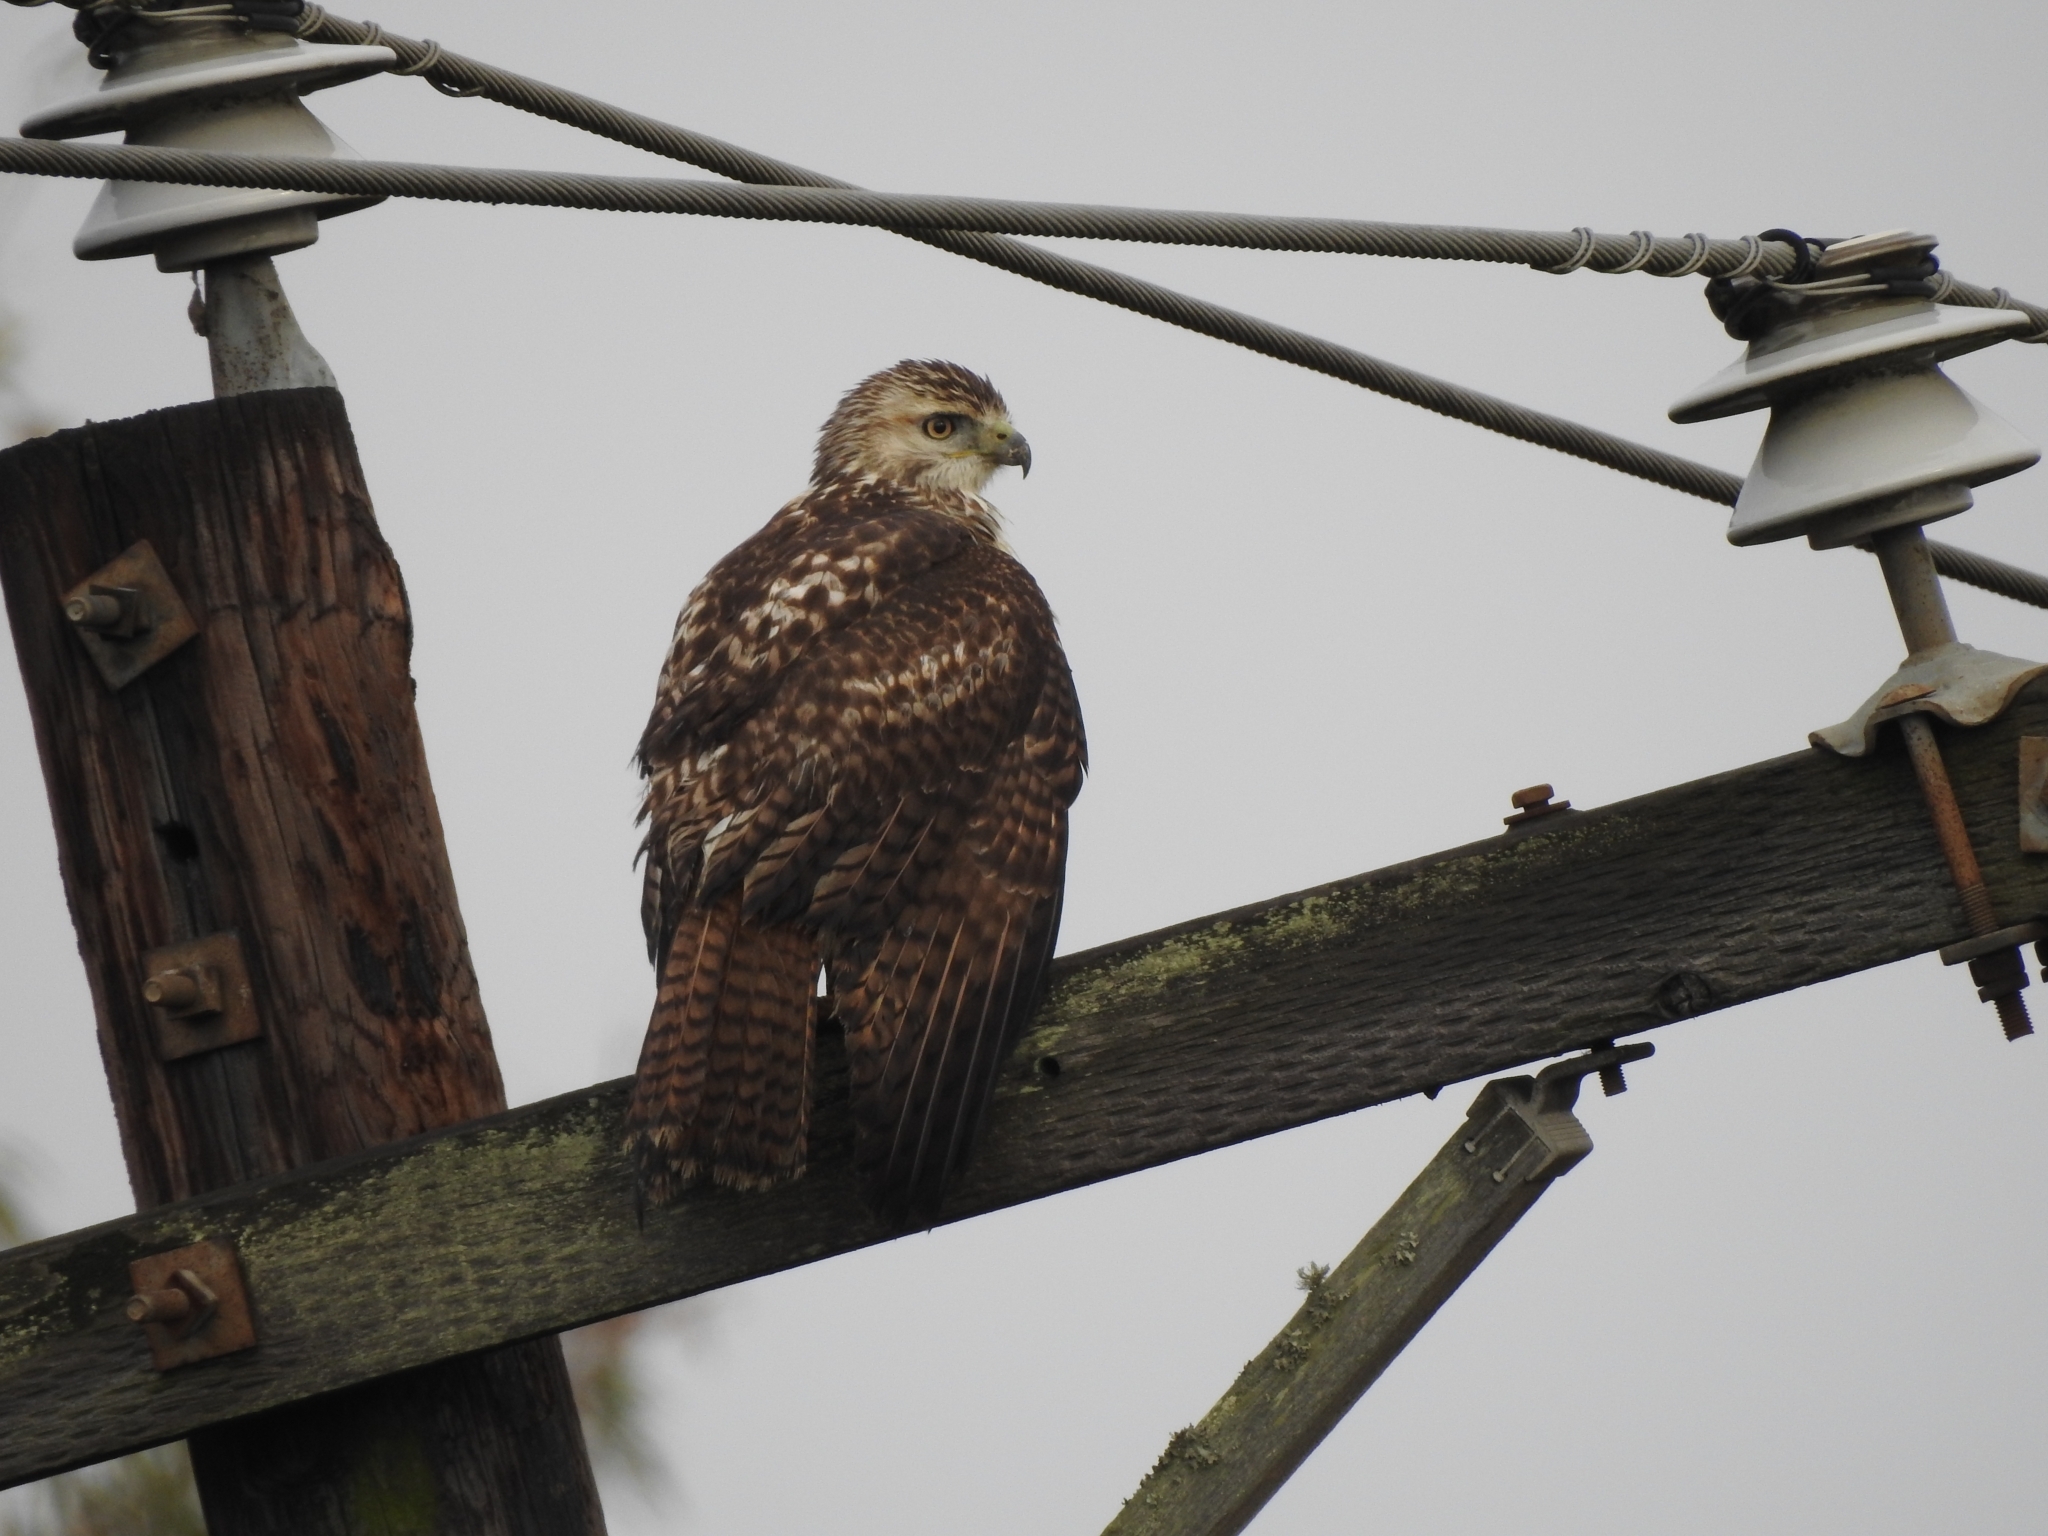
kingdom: Animalia
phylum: Chordata
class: Aves
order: Accipitriformes
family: Accipitridae
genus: Buteo
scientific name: Buteo jamaicensis
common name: Red-tailed hawk
